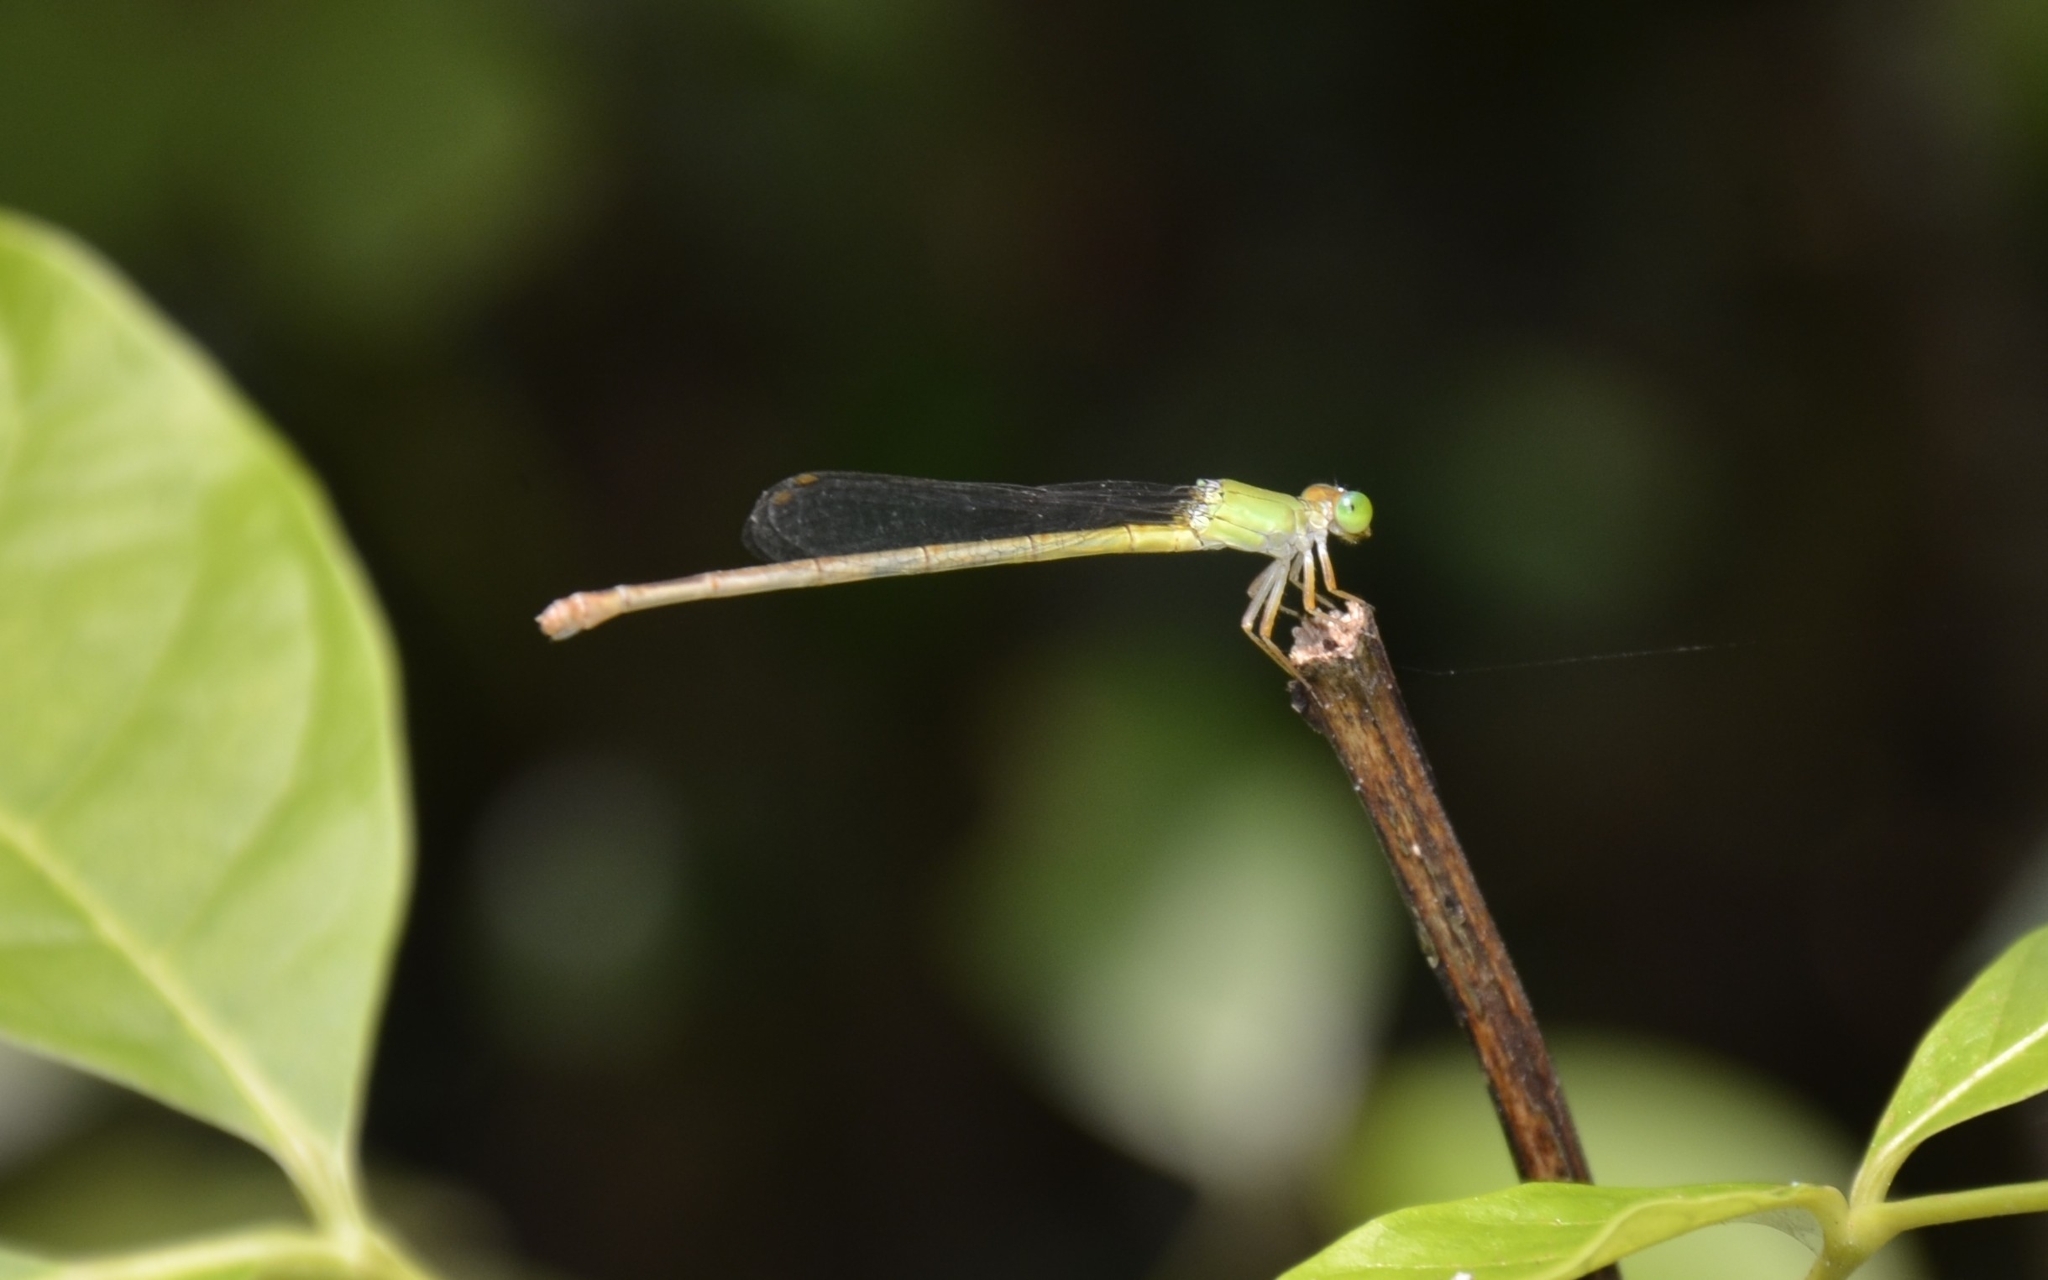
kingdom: Animalia
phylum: Arthropoda
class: Insecta
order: Odonata
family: Coenagrionidae
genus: Ceriagrion
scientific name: Ceriagrion coromandelianum
